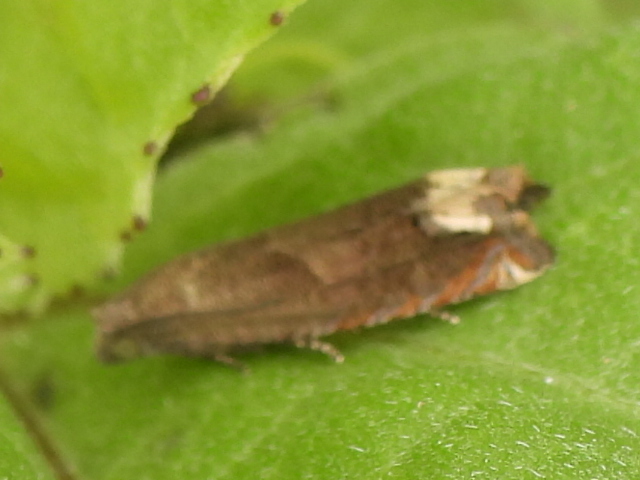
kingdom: Animalia
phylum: Arthropoda
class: Insecta
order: Lepidoptera
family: Tortricidae
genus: Epiblema
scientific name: Epiblema strenuana
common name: Ragweed borer moth
